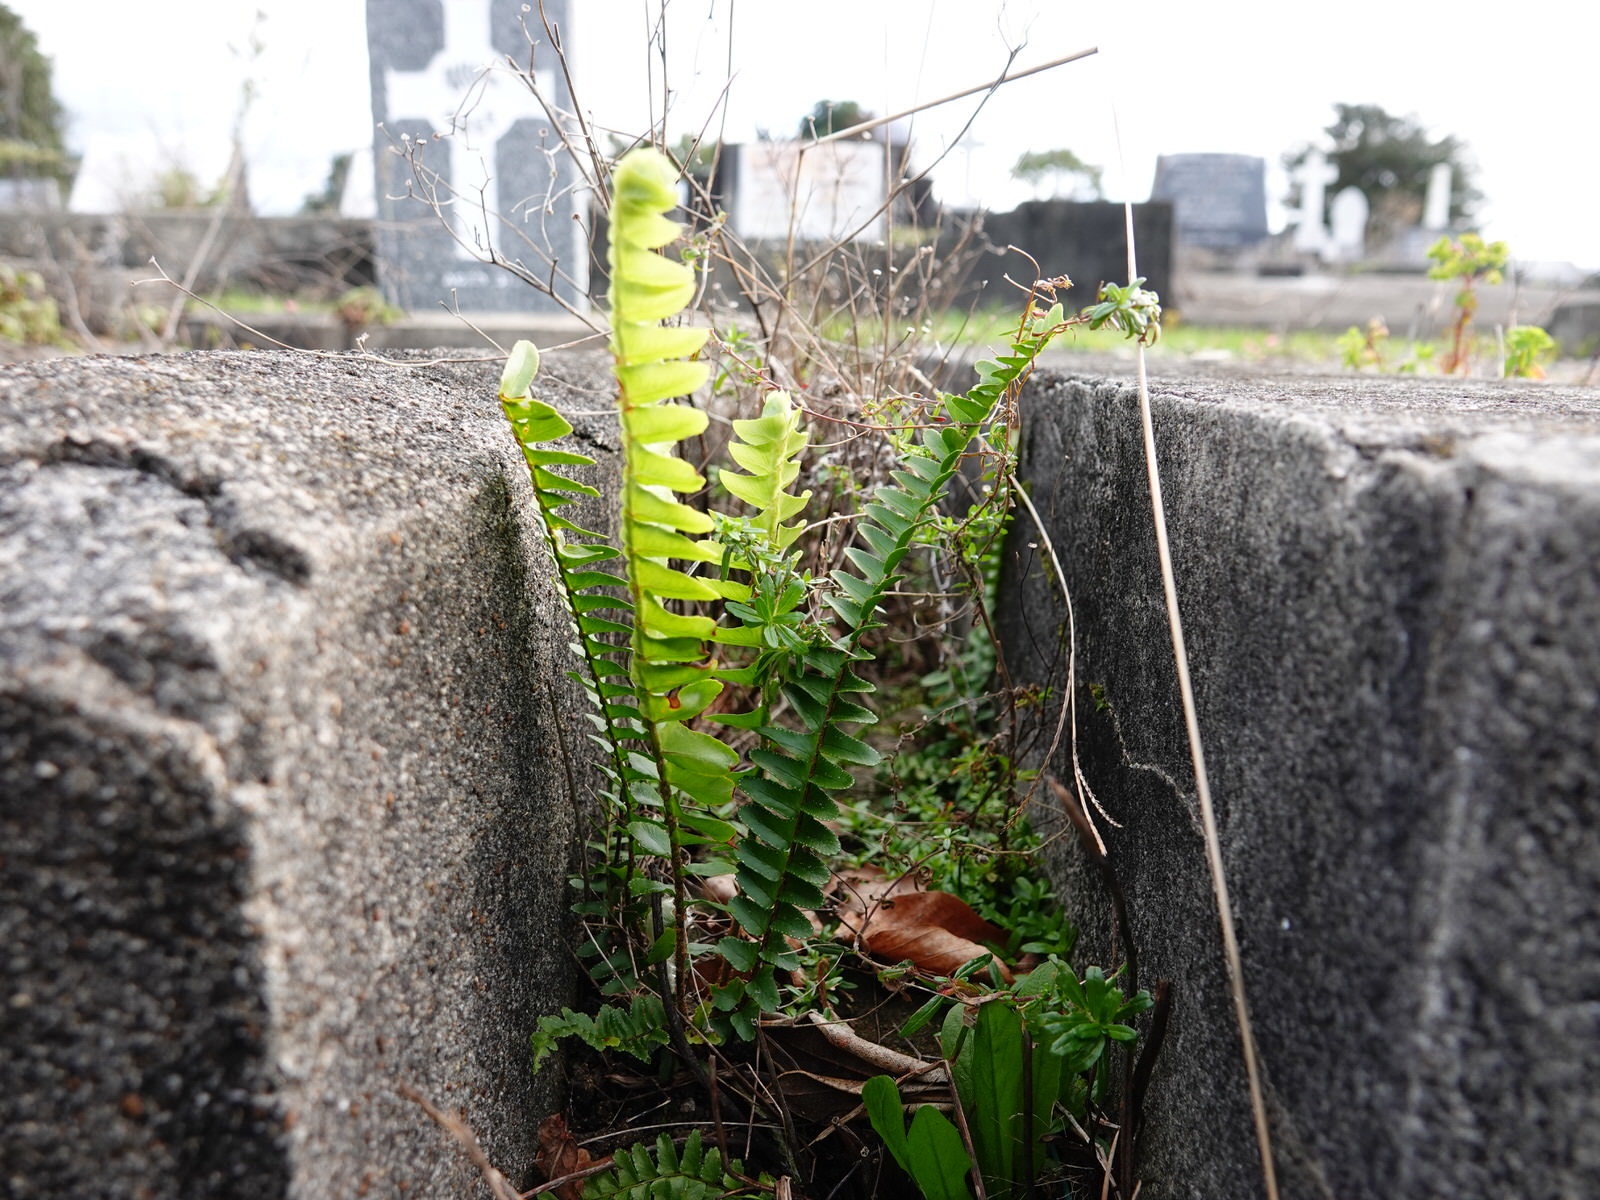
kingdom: Plantae
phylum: Tracheophyta
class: Polypodiopsida
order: Polypodiales
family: Nephrolepidaceae
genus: Nephrolepis
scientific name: Nephrolepis cordifolia
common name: Narrow swordfern
